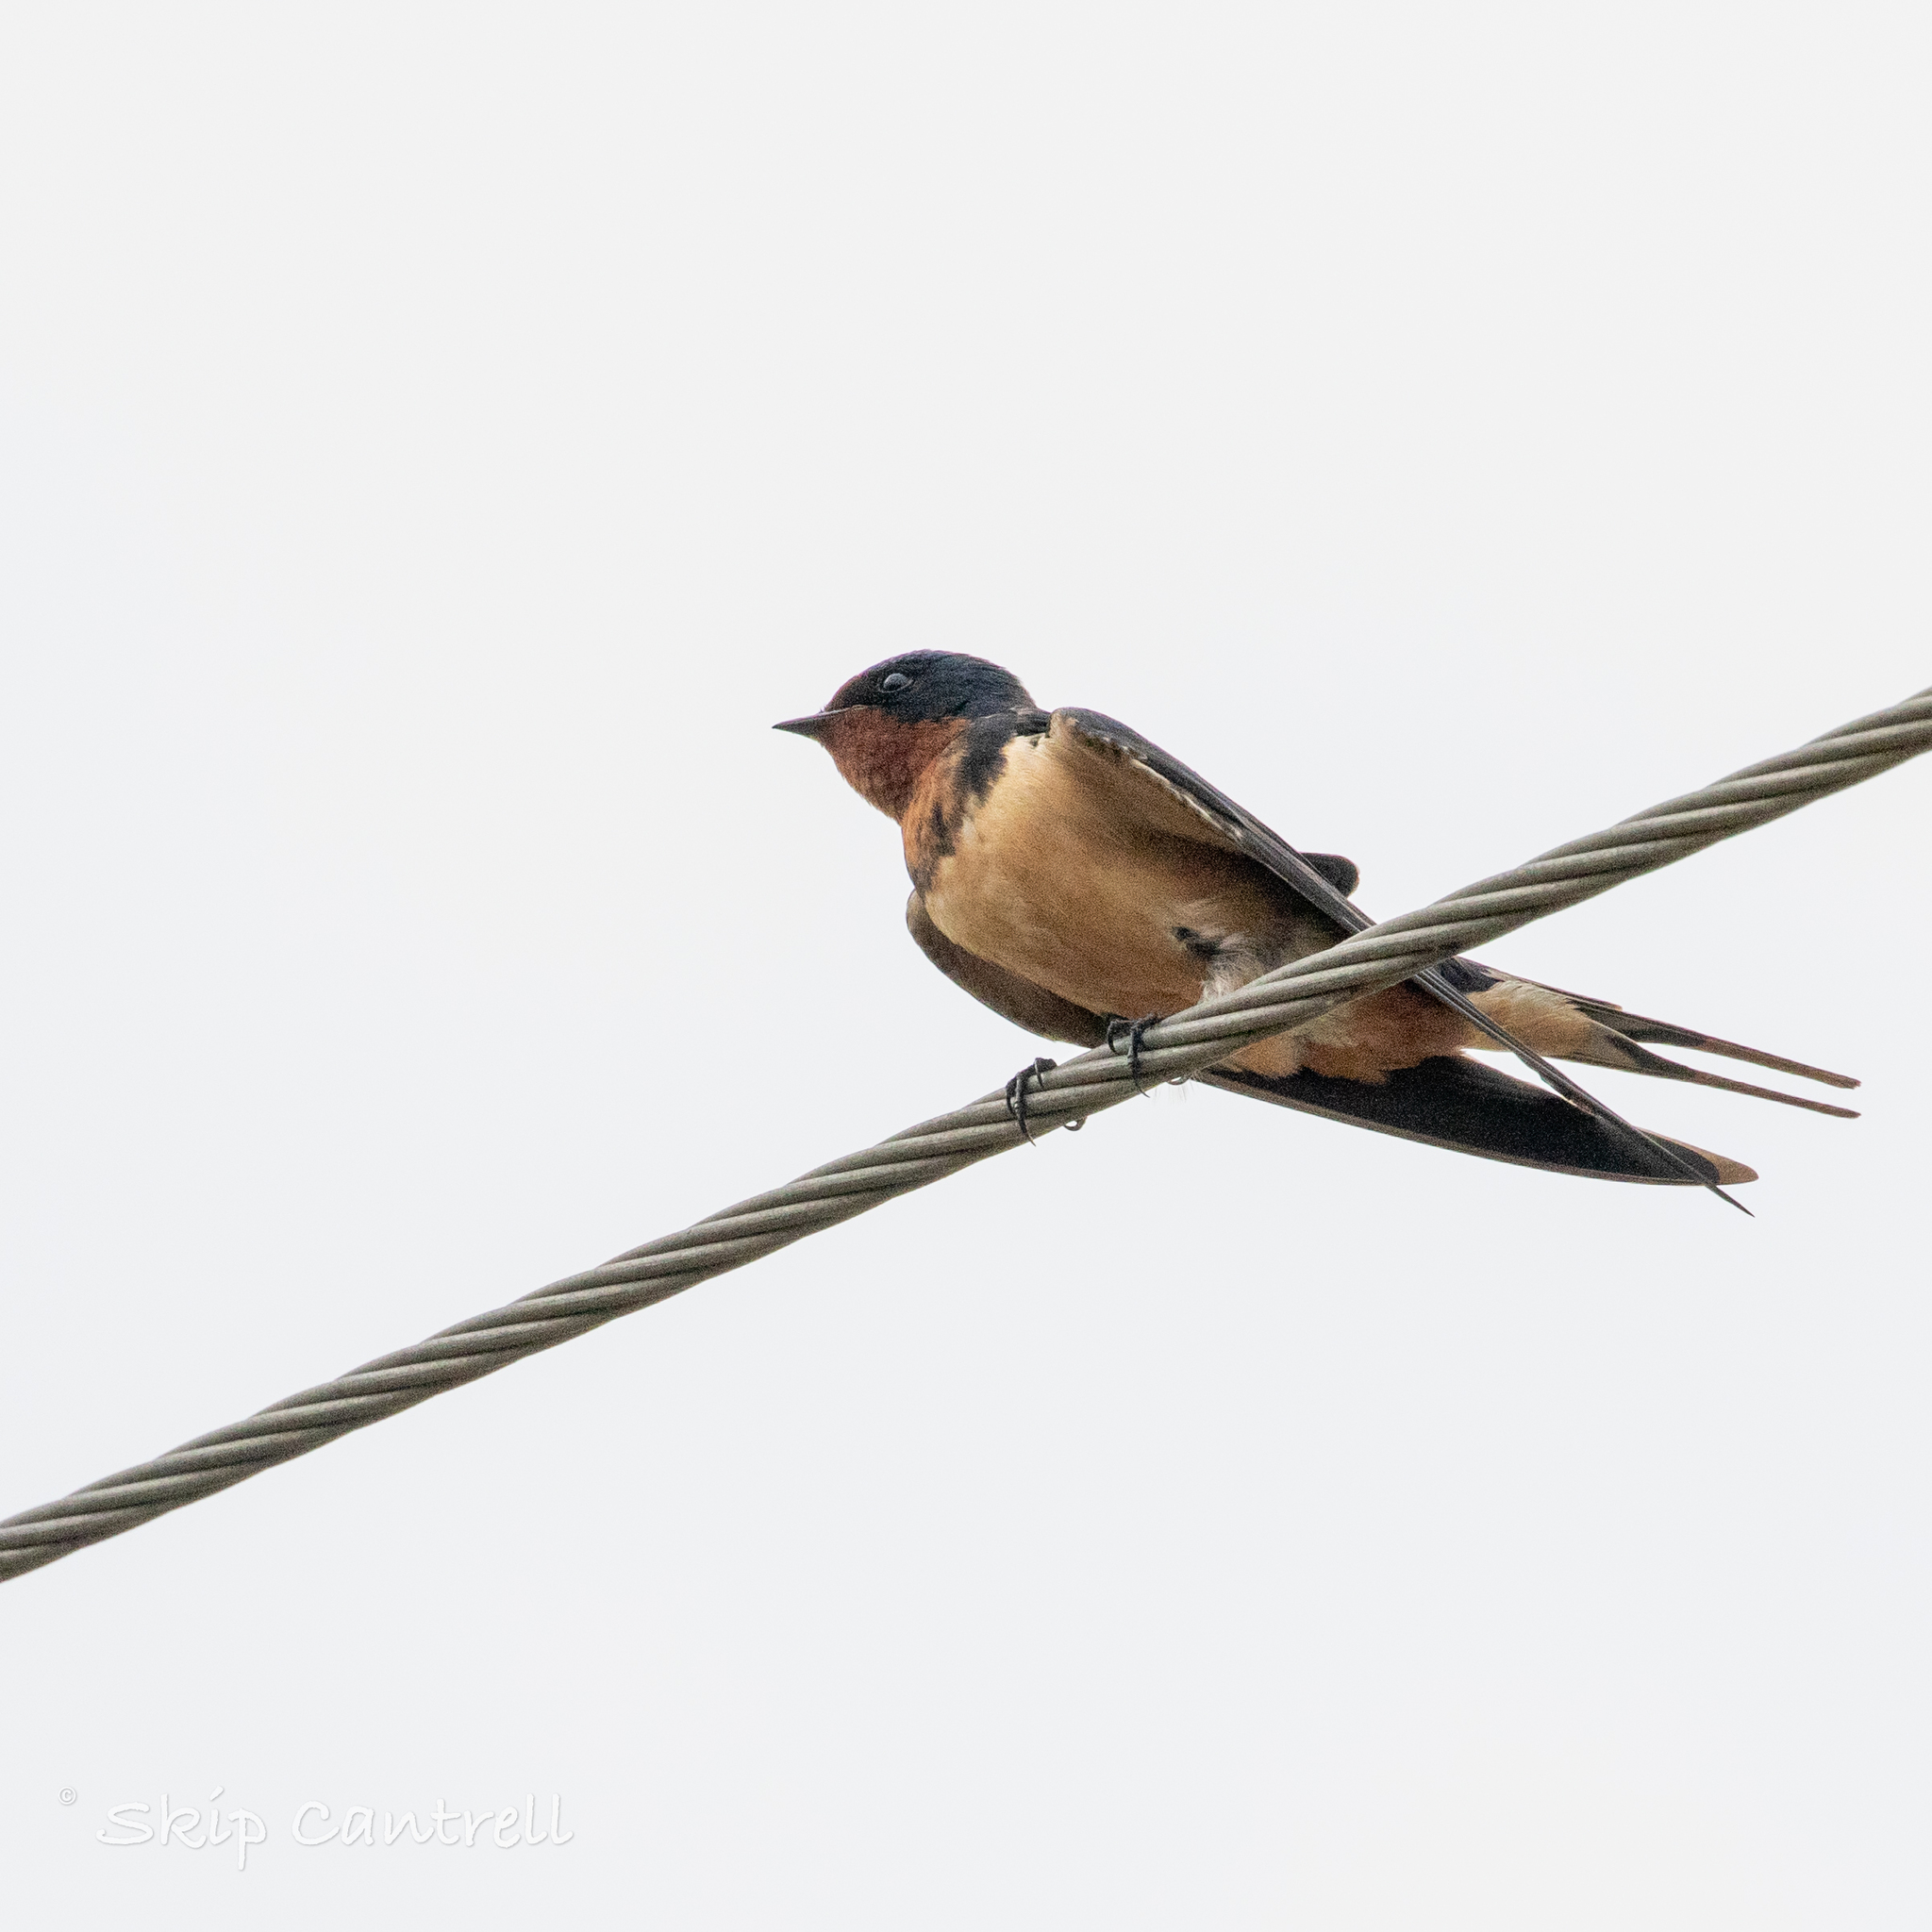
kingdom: Animalia
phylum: Chordata
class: Aves
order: Passeriformes
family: Hirundinidae
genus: Hirundo
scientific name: Hirundo rustica
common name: Barn swallow
